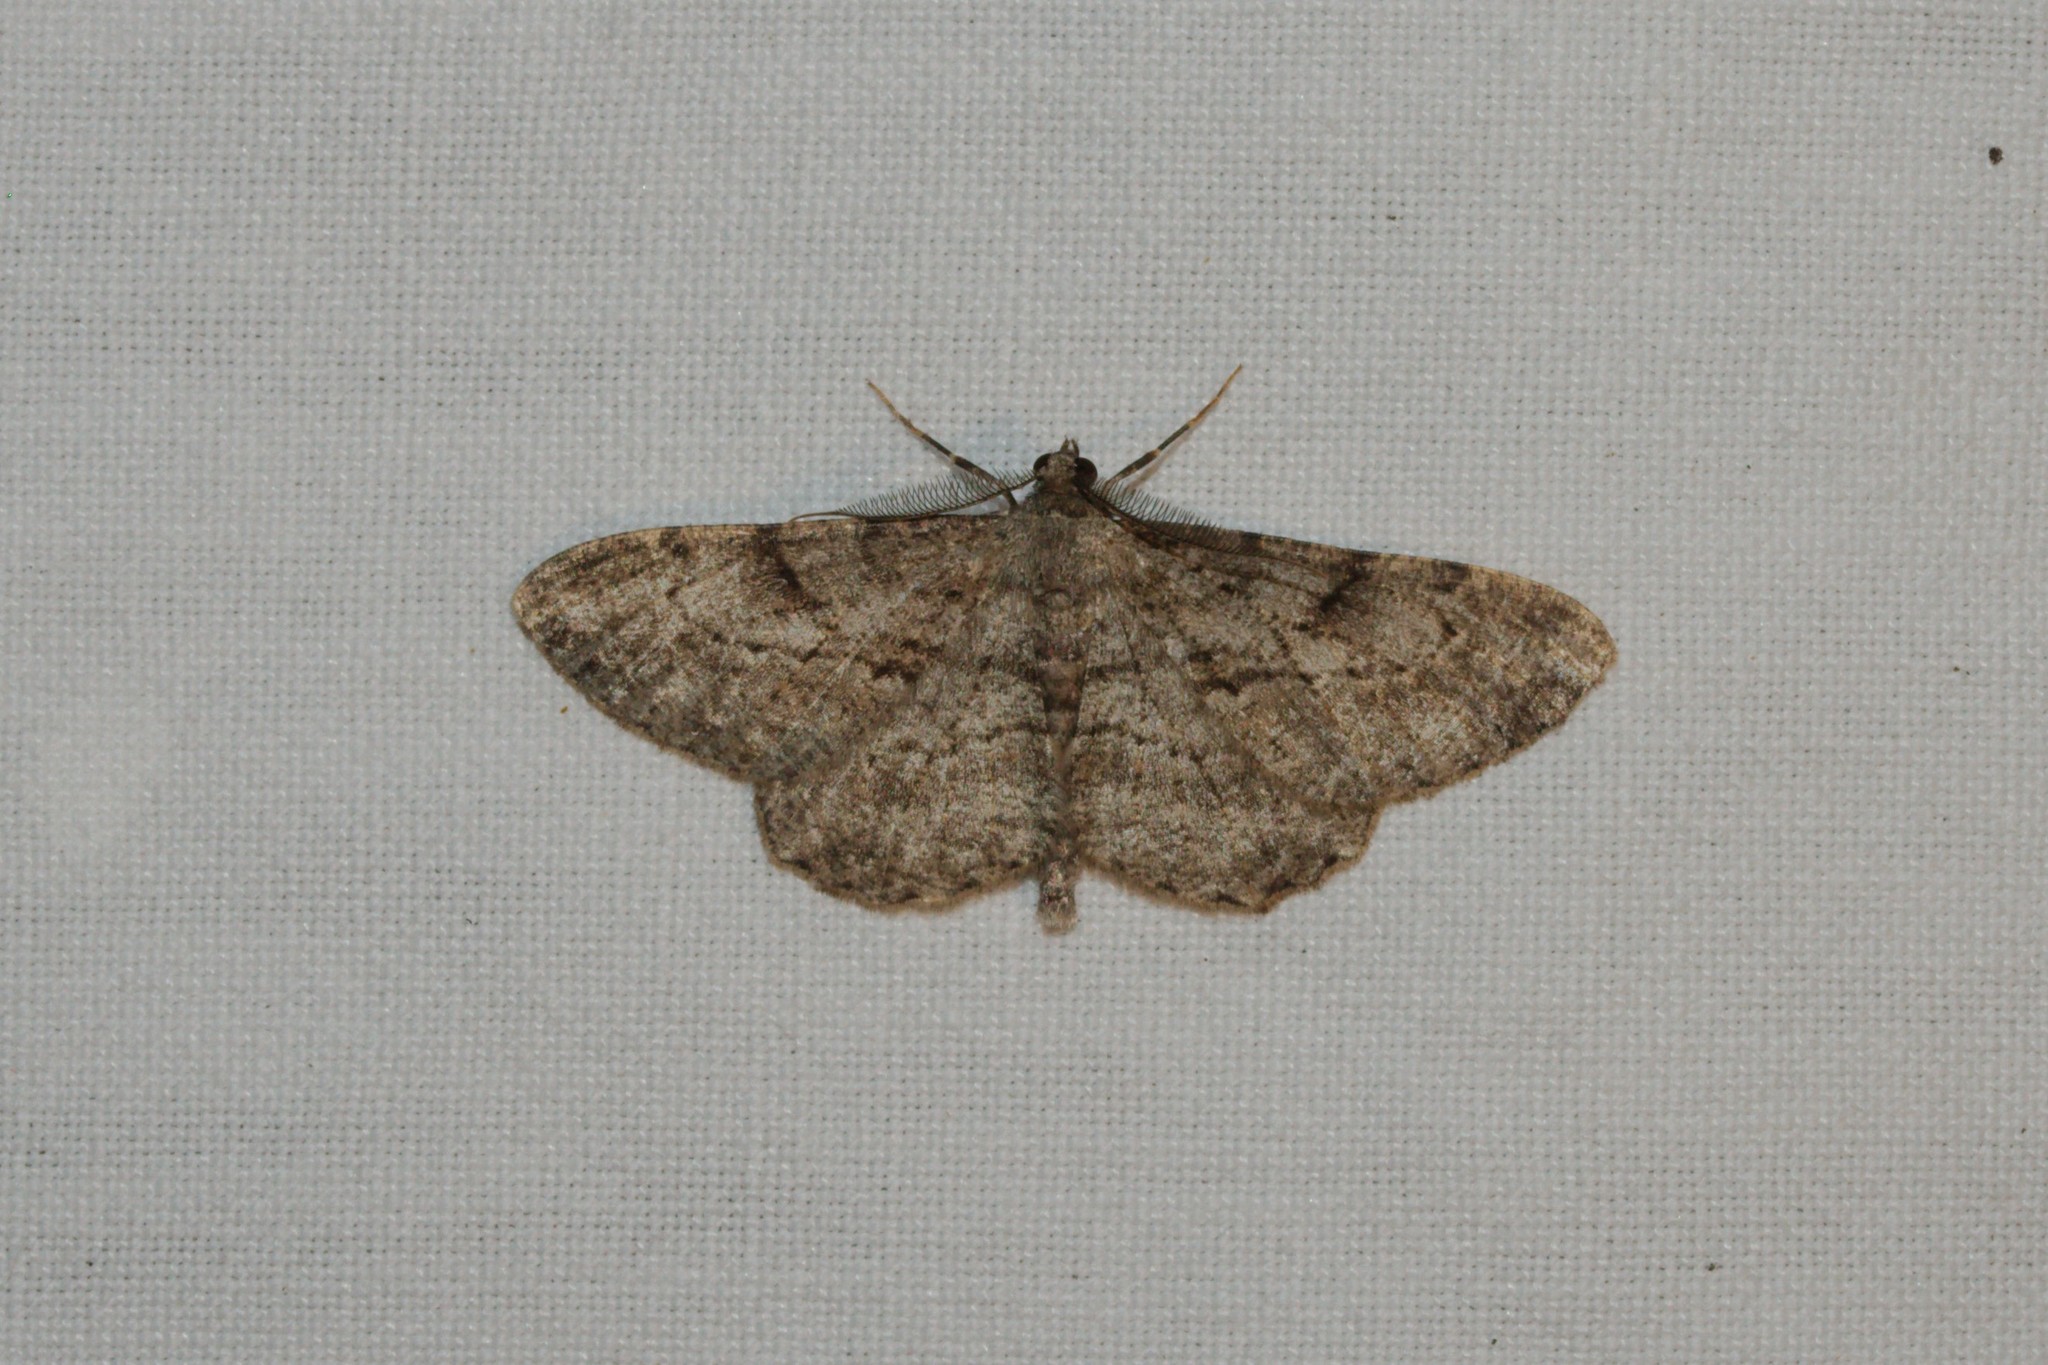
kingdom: Animalia
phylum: Arthropoda
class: Insecta
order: Lepidoptera
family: Geometridae
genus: Peribatodes
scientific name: Peribatodes rhomboidaria
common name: Willow beauty
